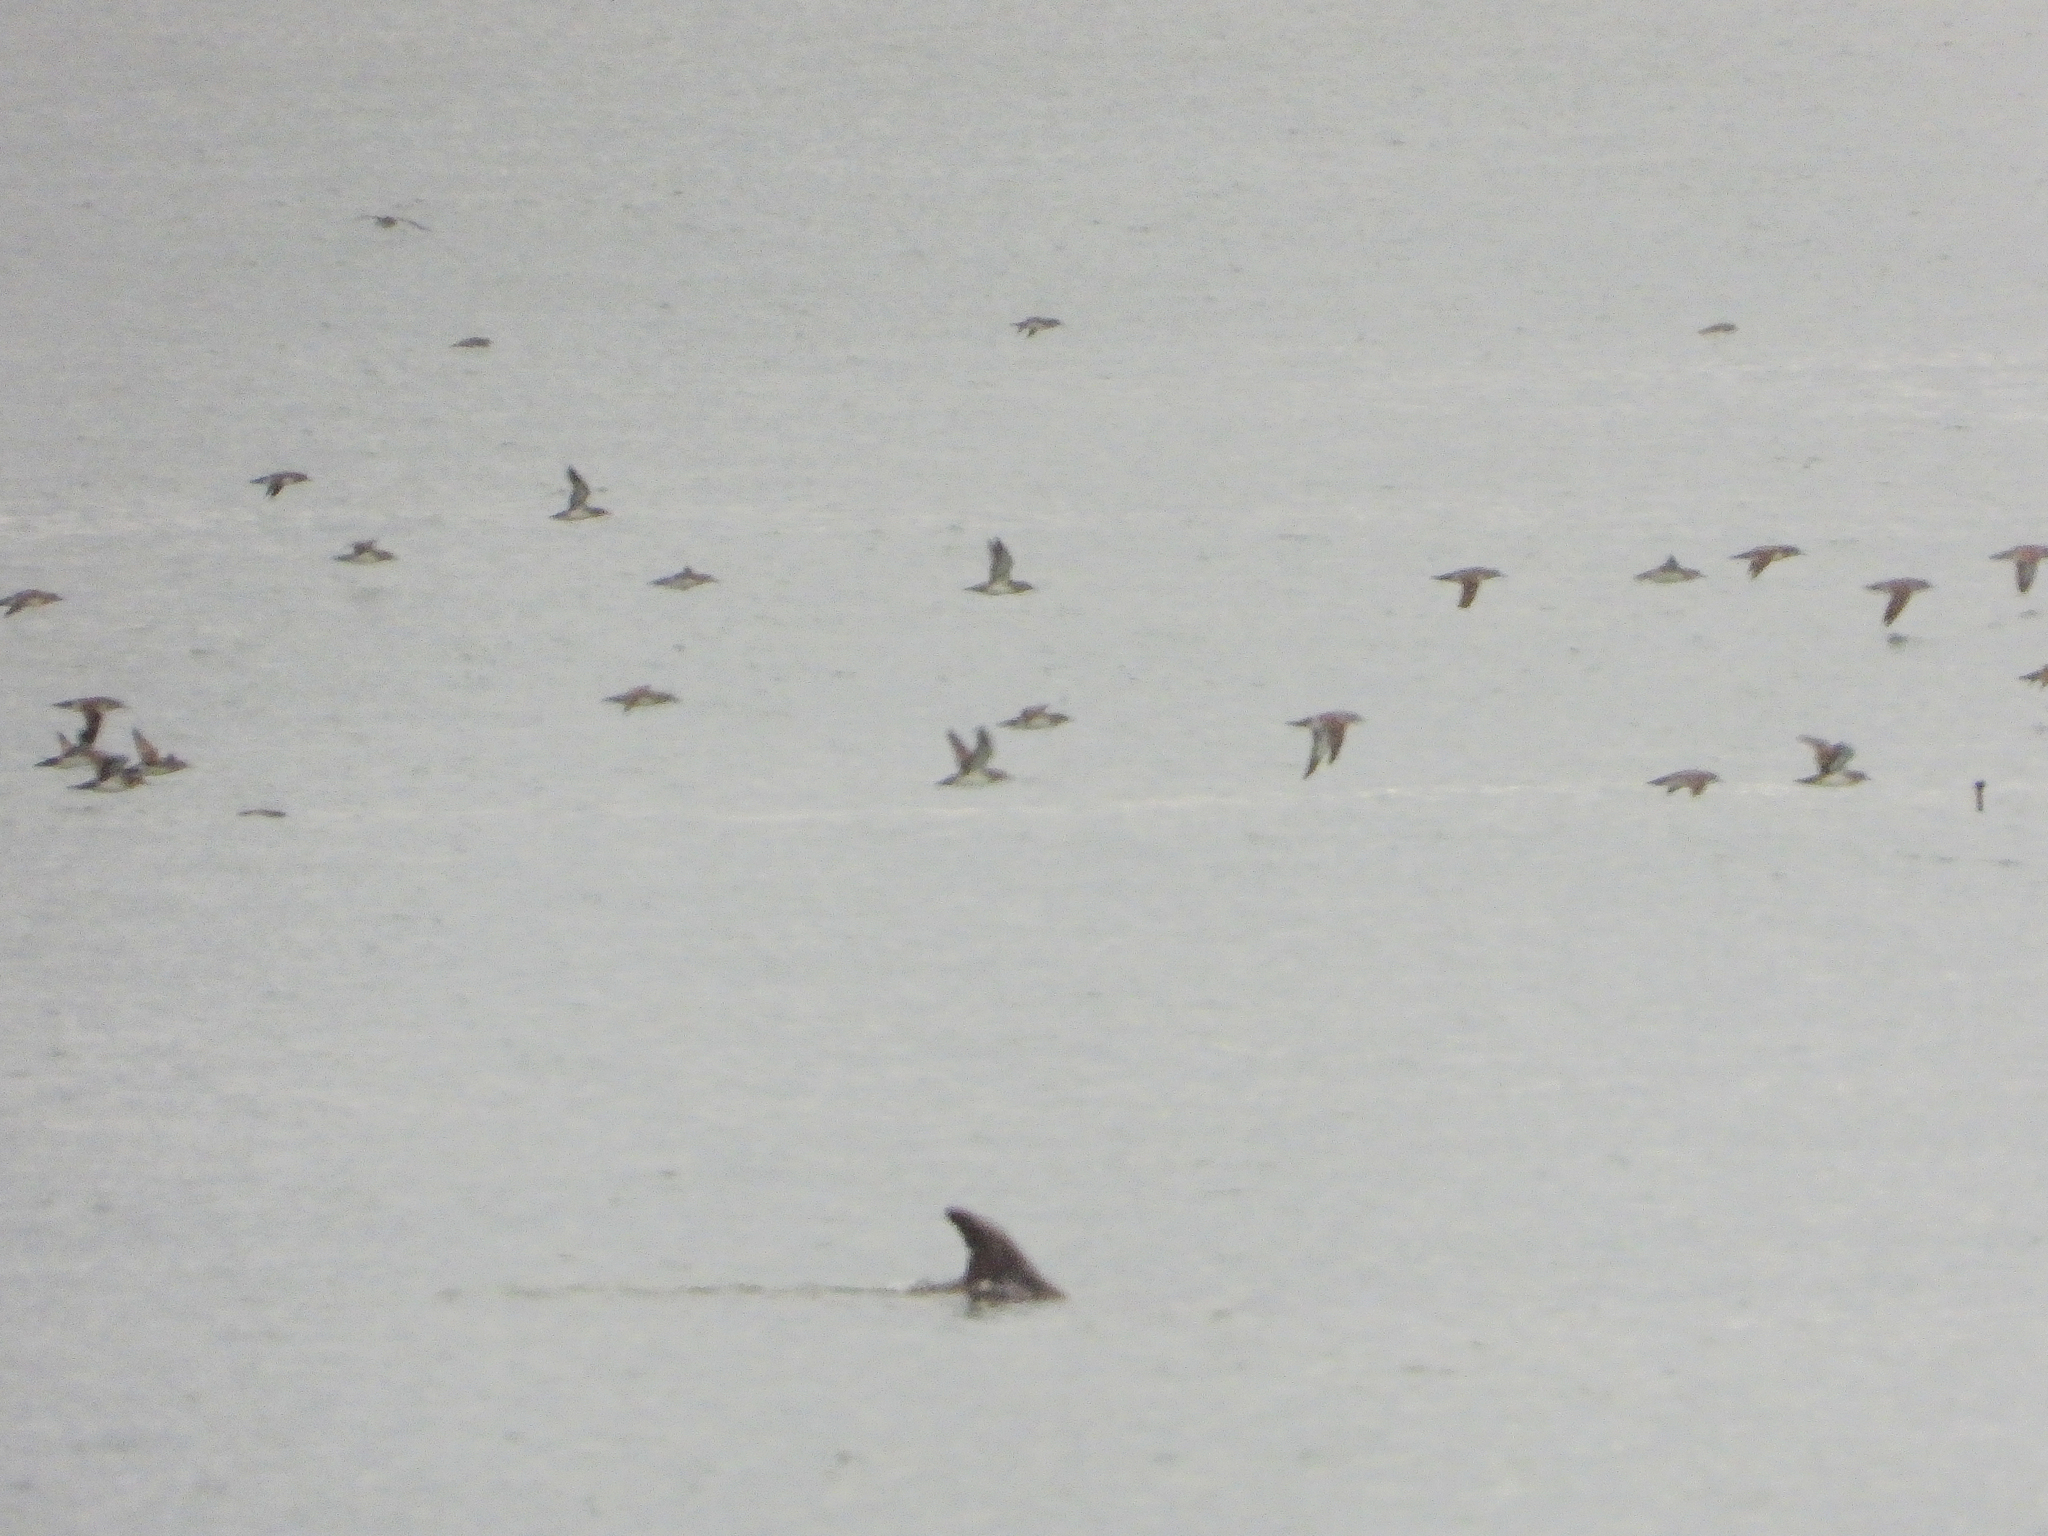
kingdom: Animalia
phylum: Chordata
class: Aves
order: Procellariiformes
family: Procellariidae
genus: Puffinus
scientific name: Puffinus opisthomelas
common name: Black-vented shearwater
